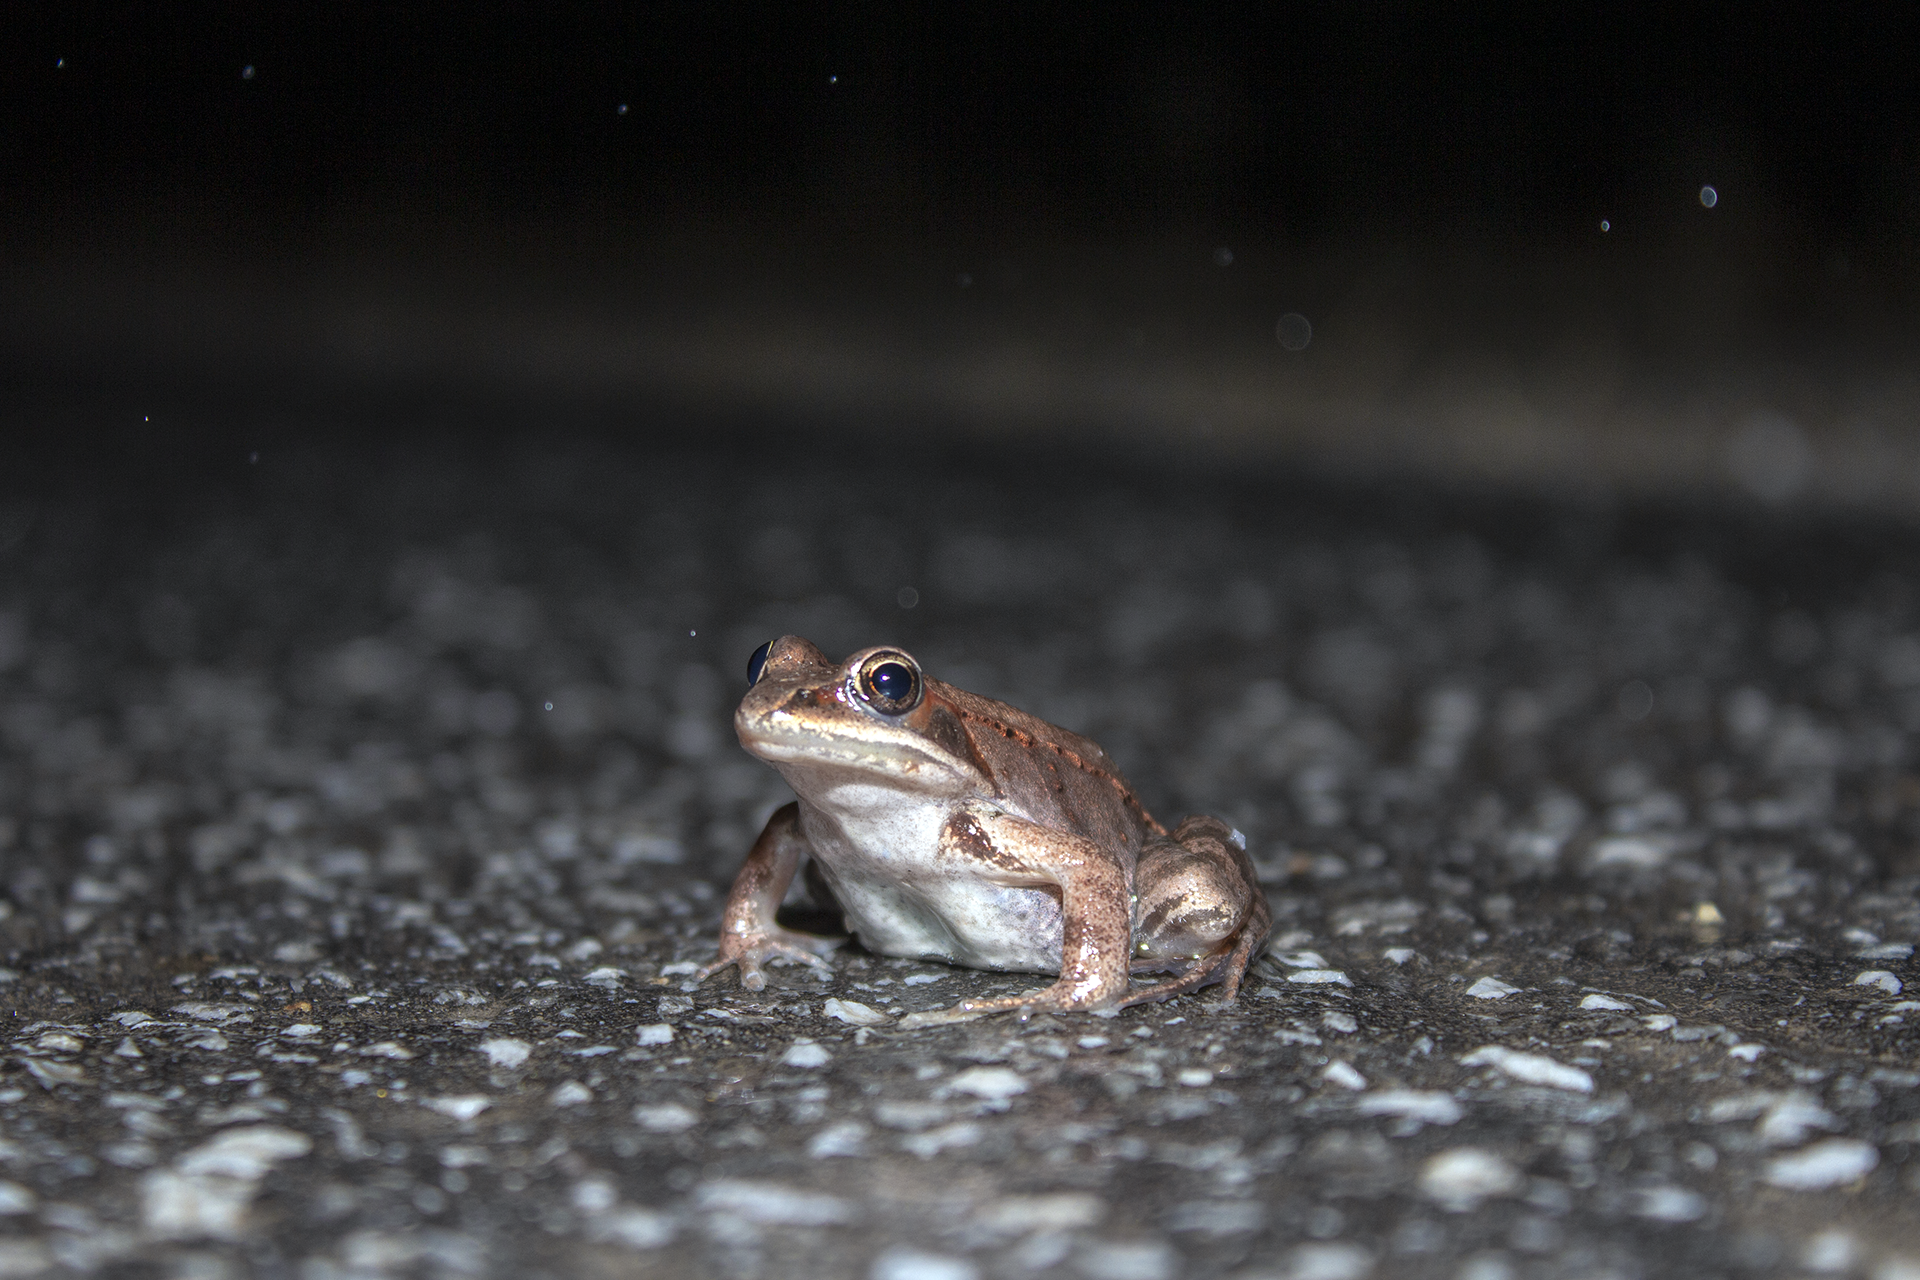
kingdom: Animalia
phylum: Chordata
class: Amphibia
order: Anura
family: Ranidae
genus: Lithobates
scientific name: Lithobates sylvaticus
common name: Wood frog
